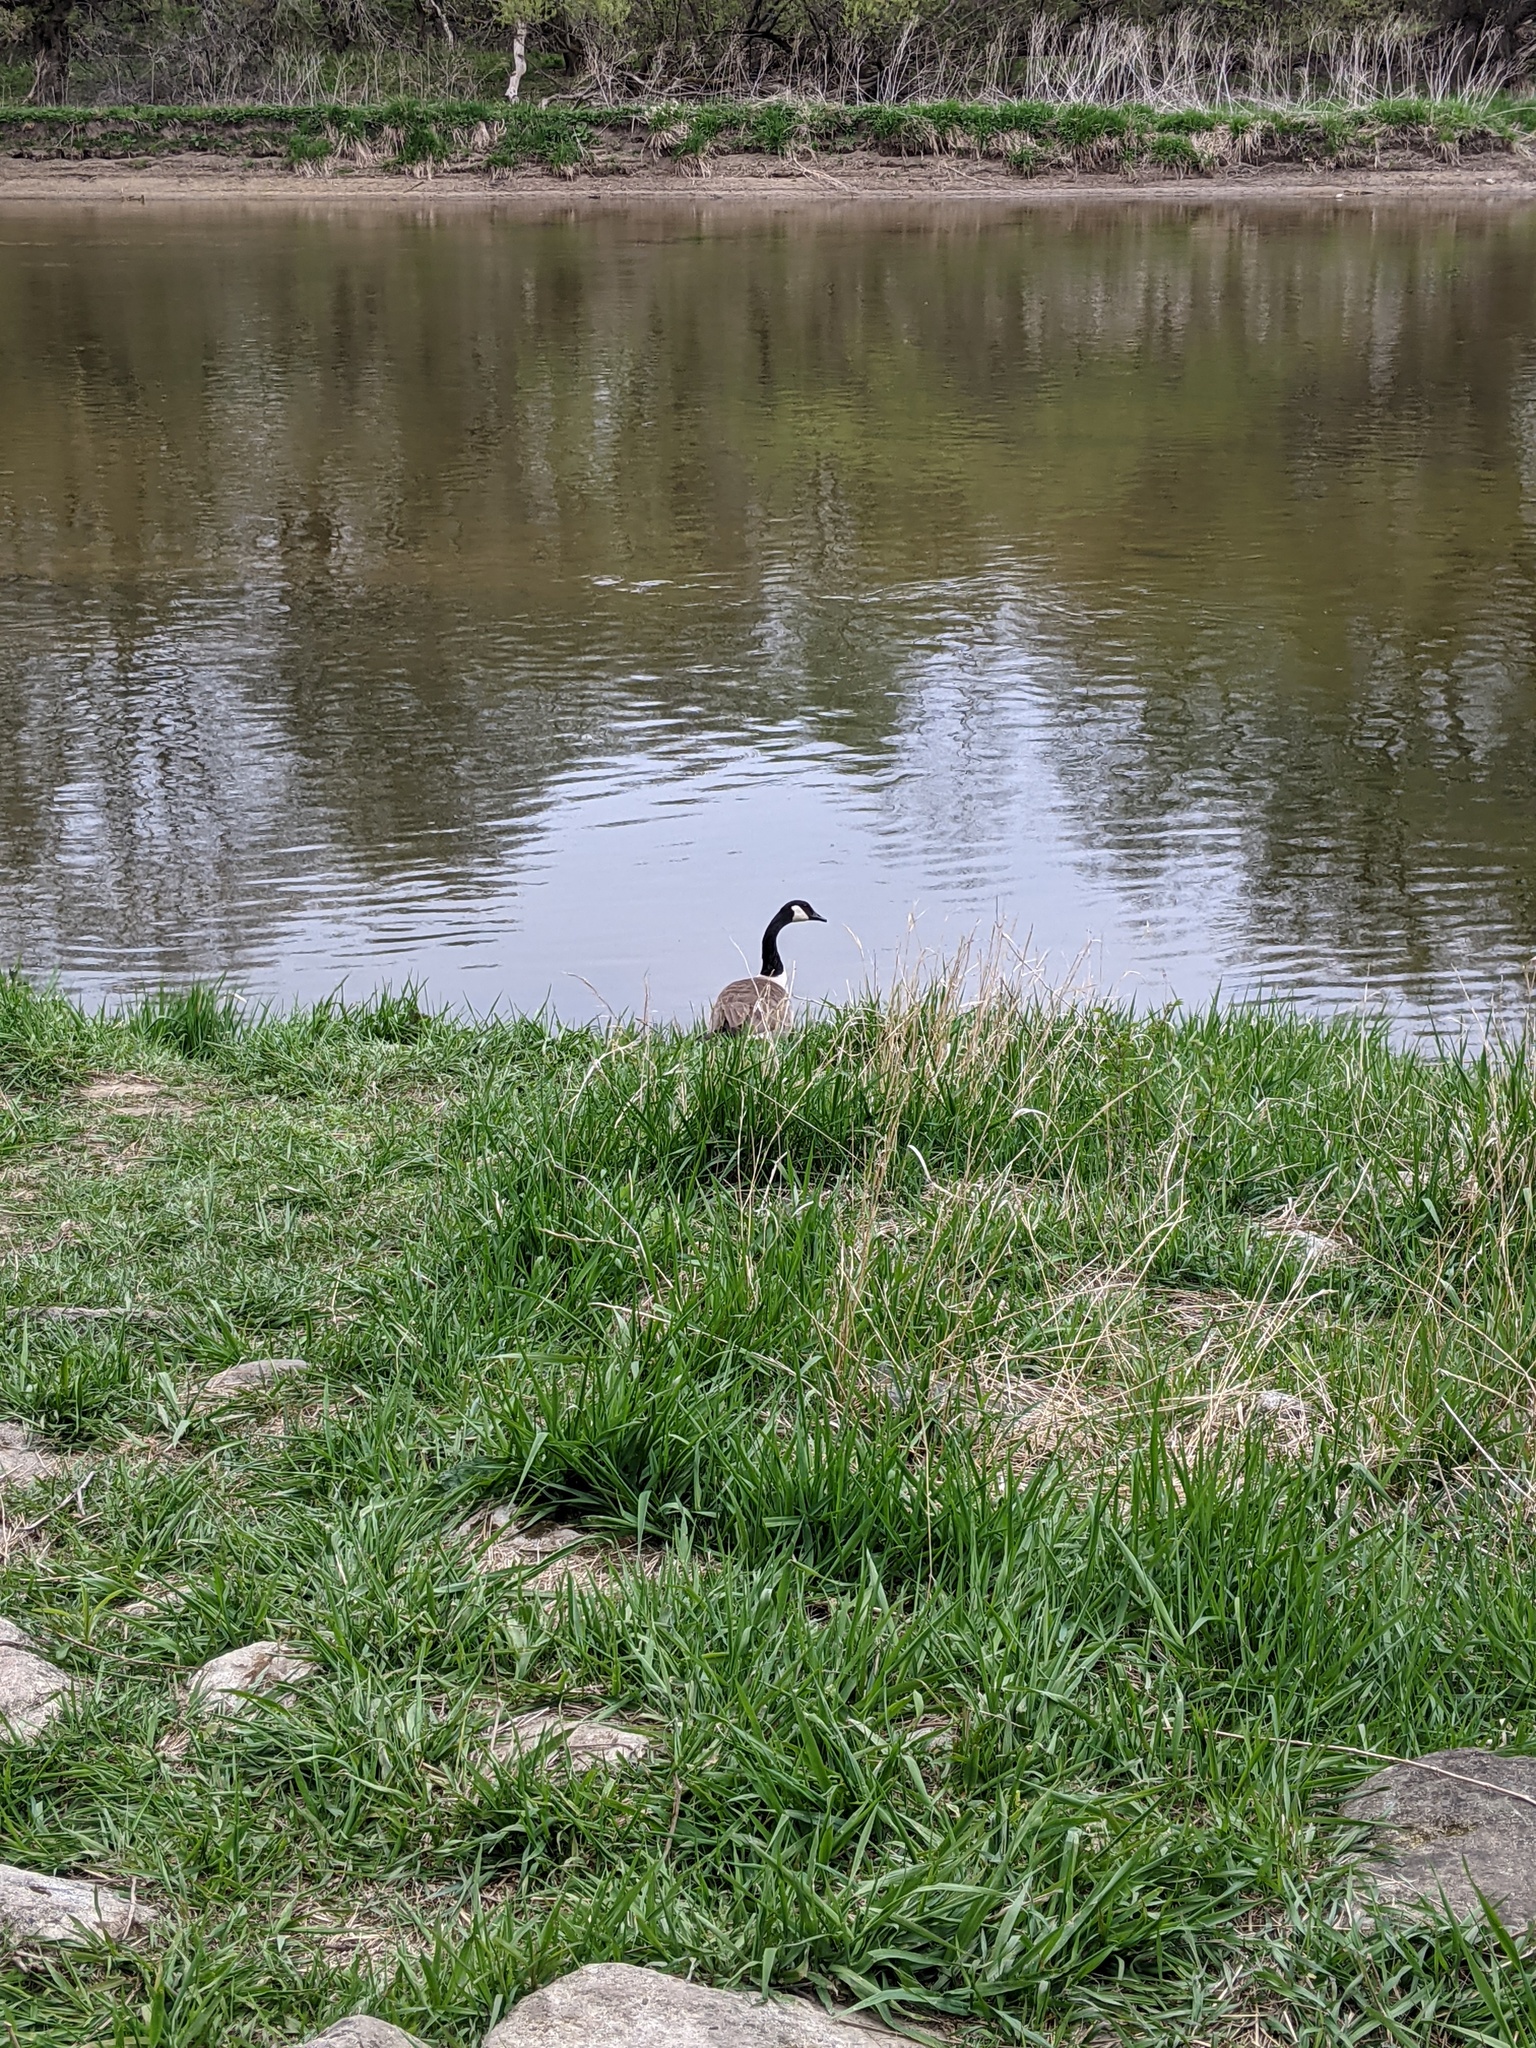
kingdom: Animalia
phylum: Chordata
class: Aves
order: Anseriformes
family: Anatidae
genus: Branta
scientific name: Branta canadensis
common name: Canada goose
